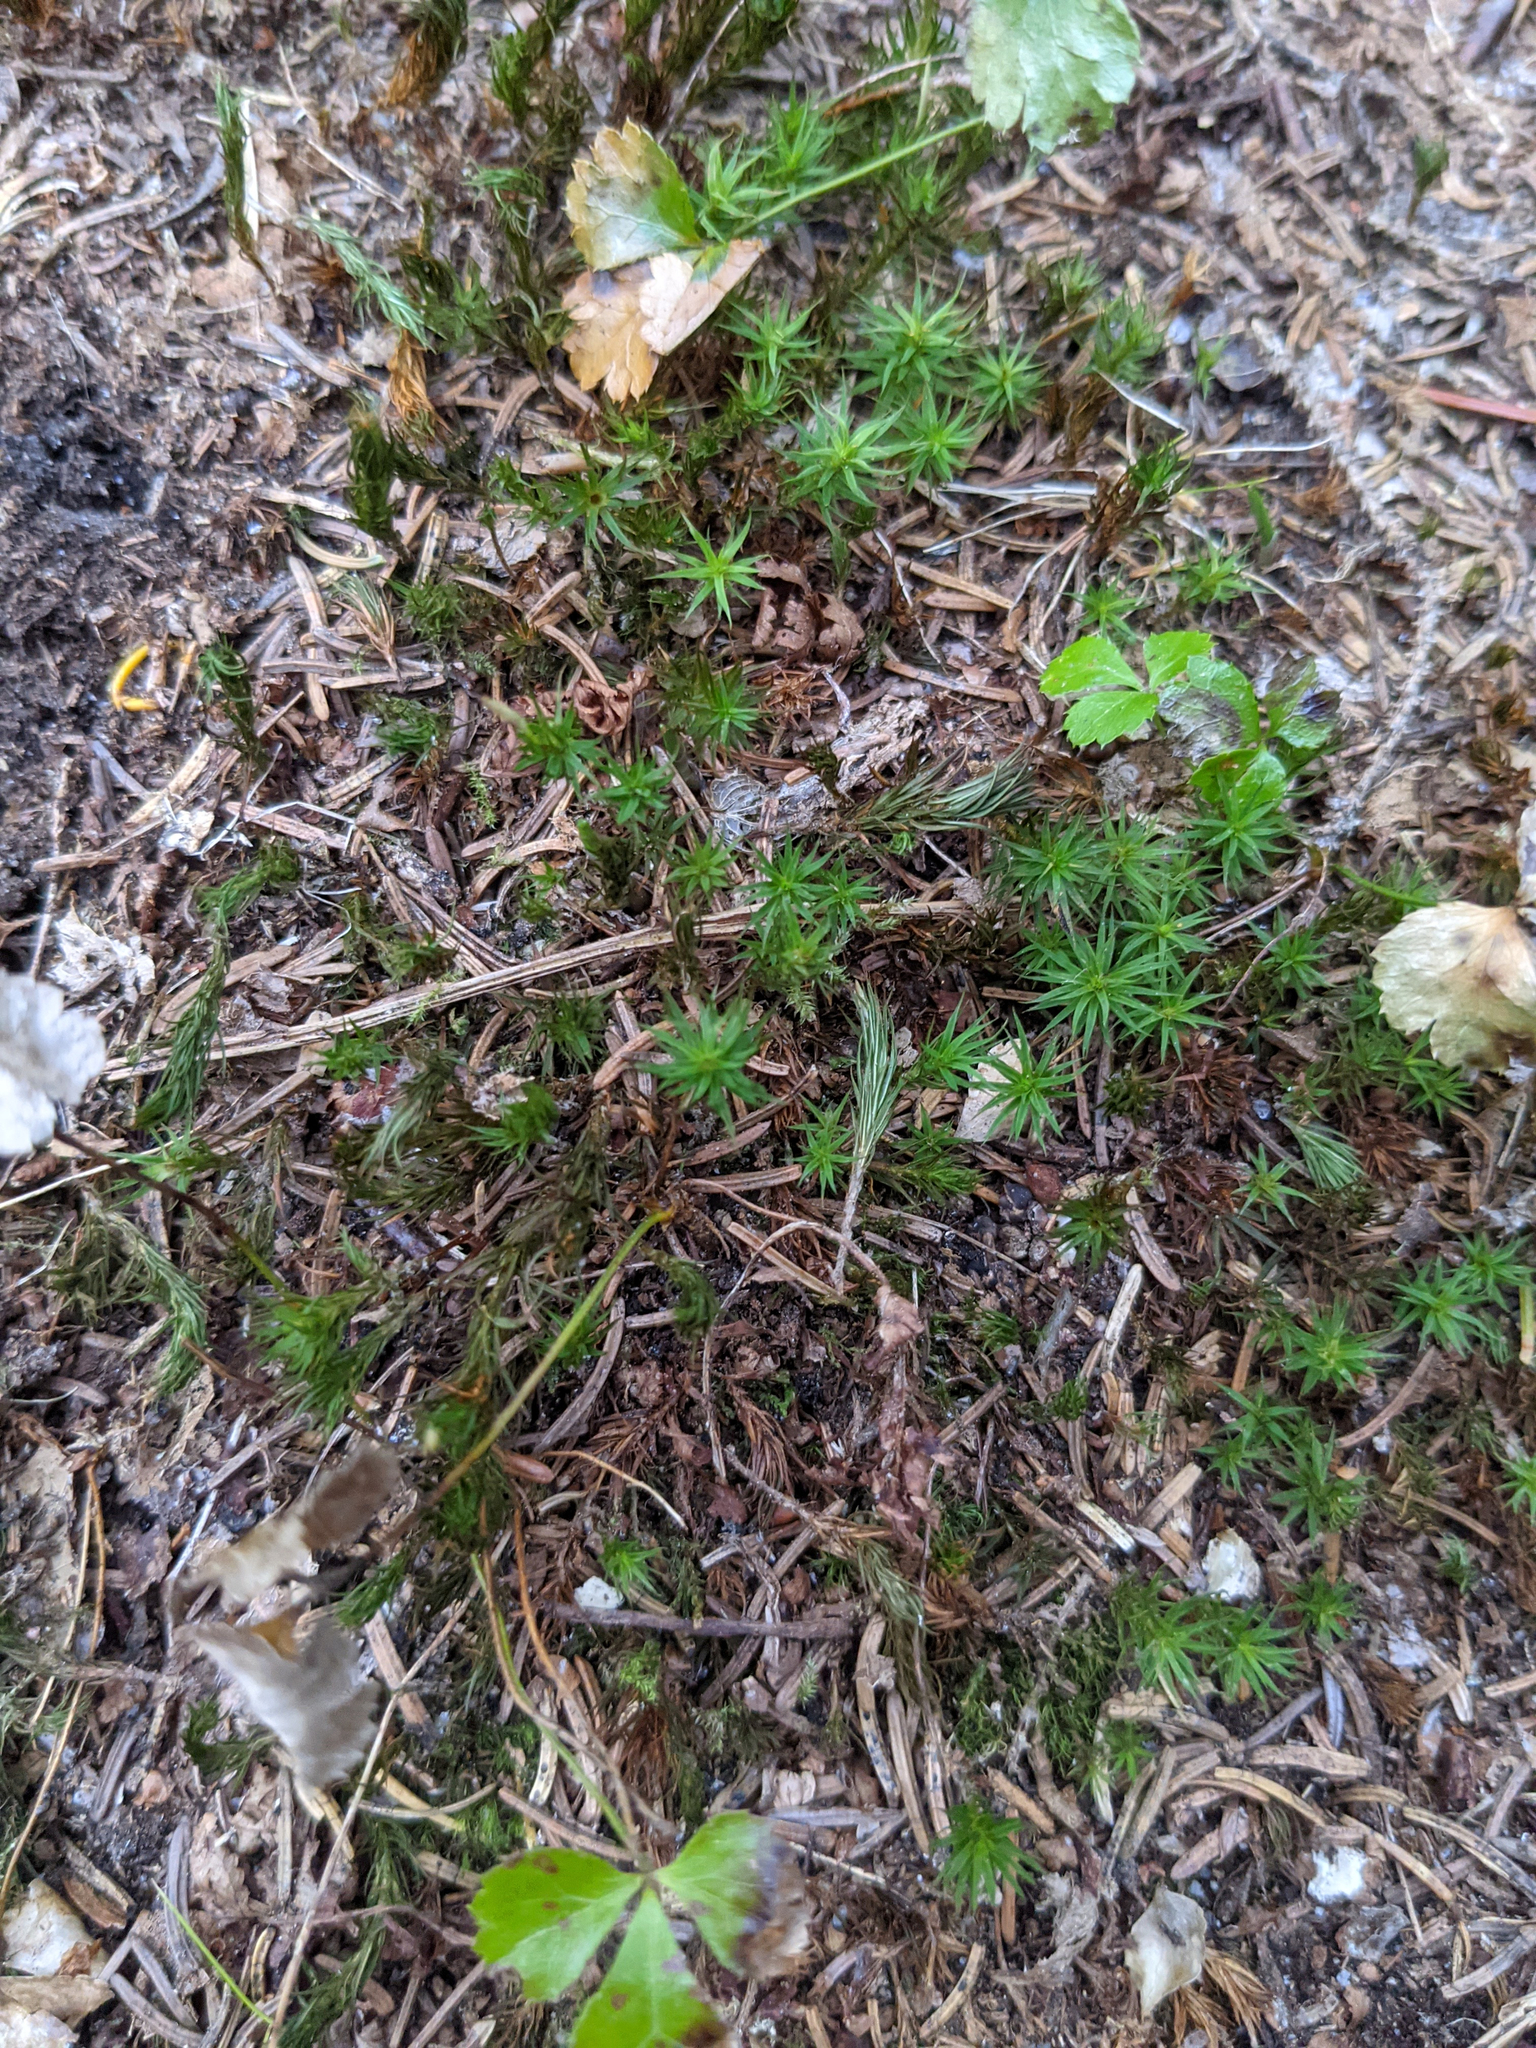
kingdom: Plantae
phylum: Tracheophyta
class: Magnoliopsida
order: Ranunculales
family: Ranunculaceae
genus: Coptis
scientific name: Coptis trifolia
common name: Canker-root
